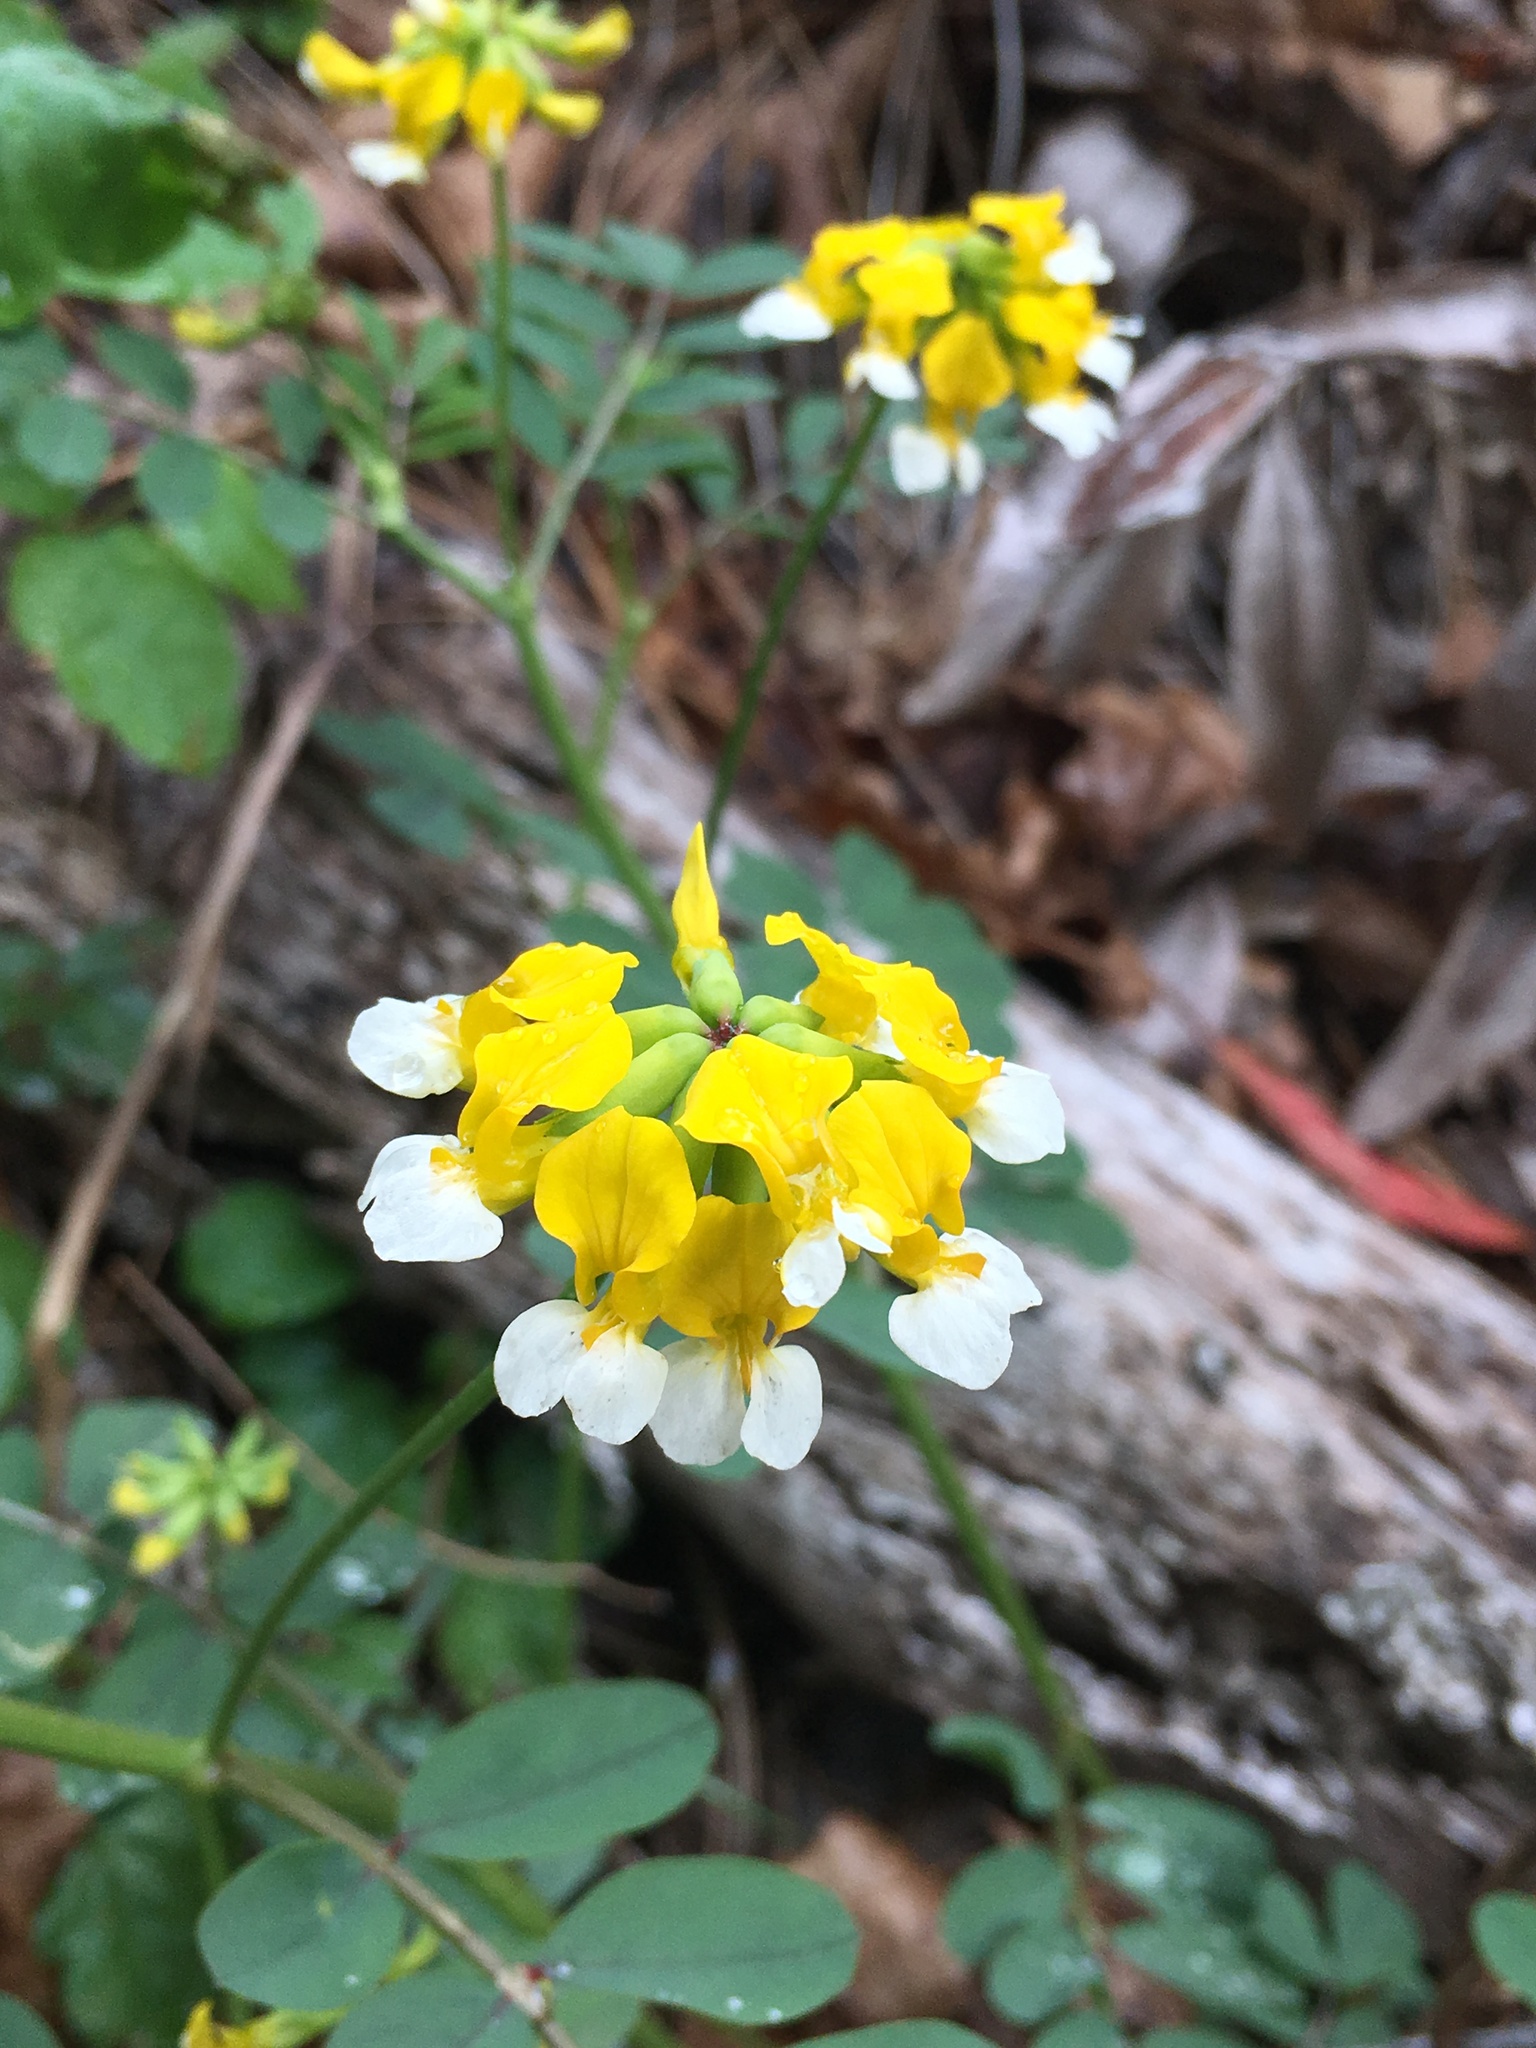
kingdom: Plantae
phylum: Tracheophyta
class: Magnoliopsida
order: Fabales
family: Fabaceae
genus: Hosackia
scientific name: Hosackia oblongifolia
